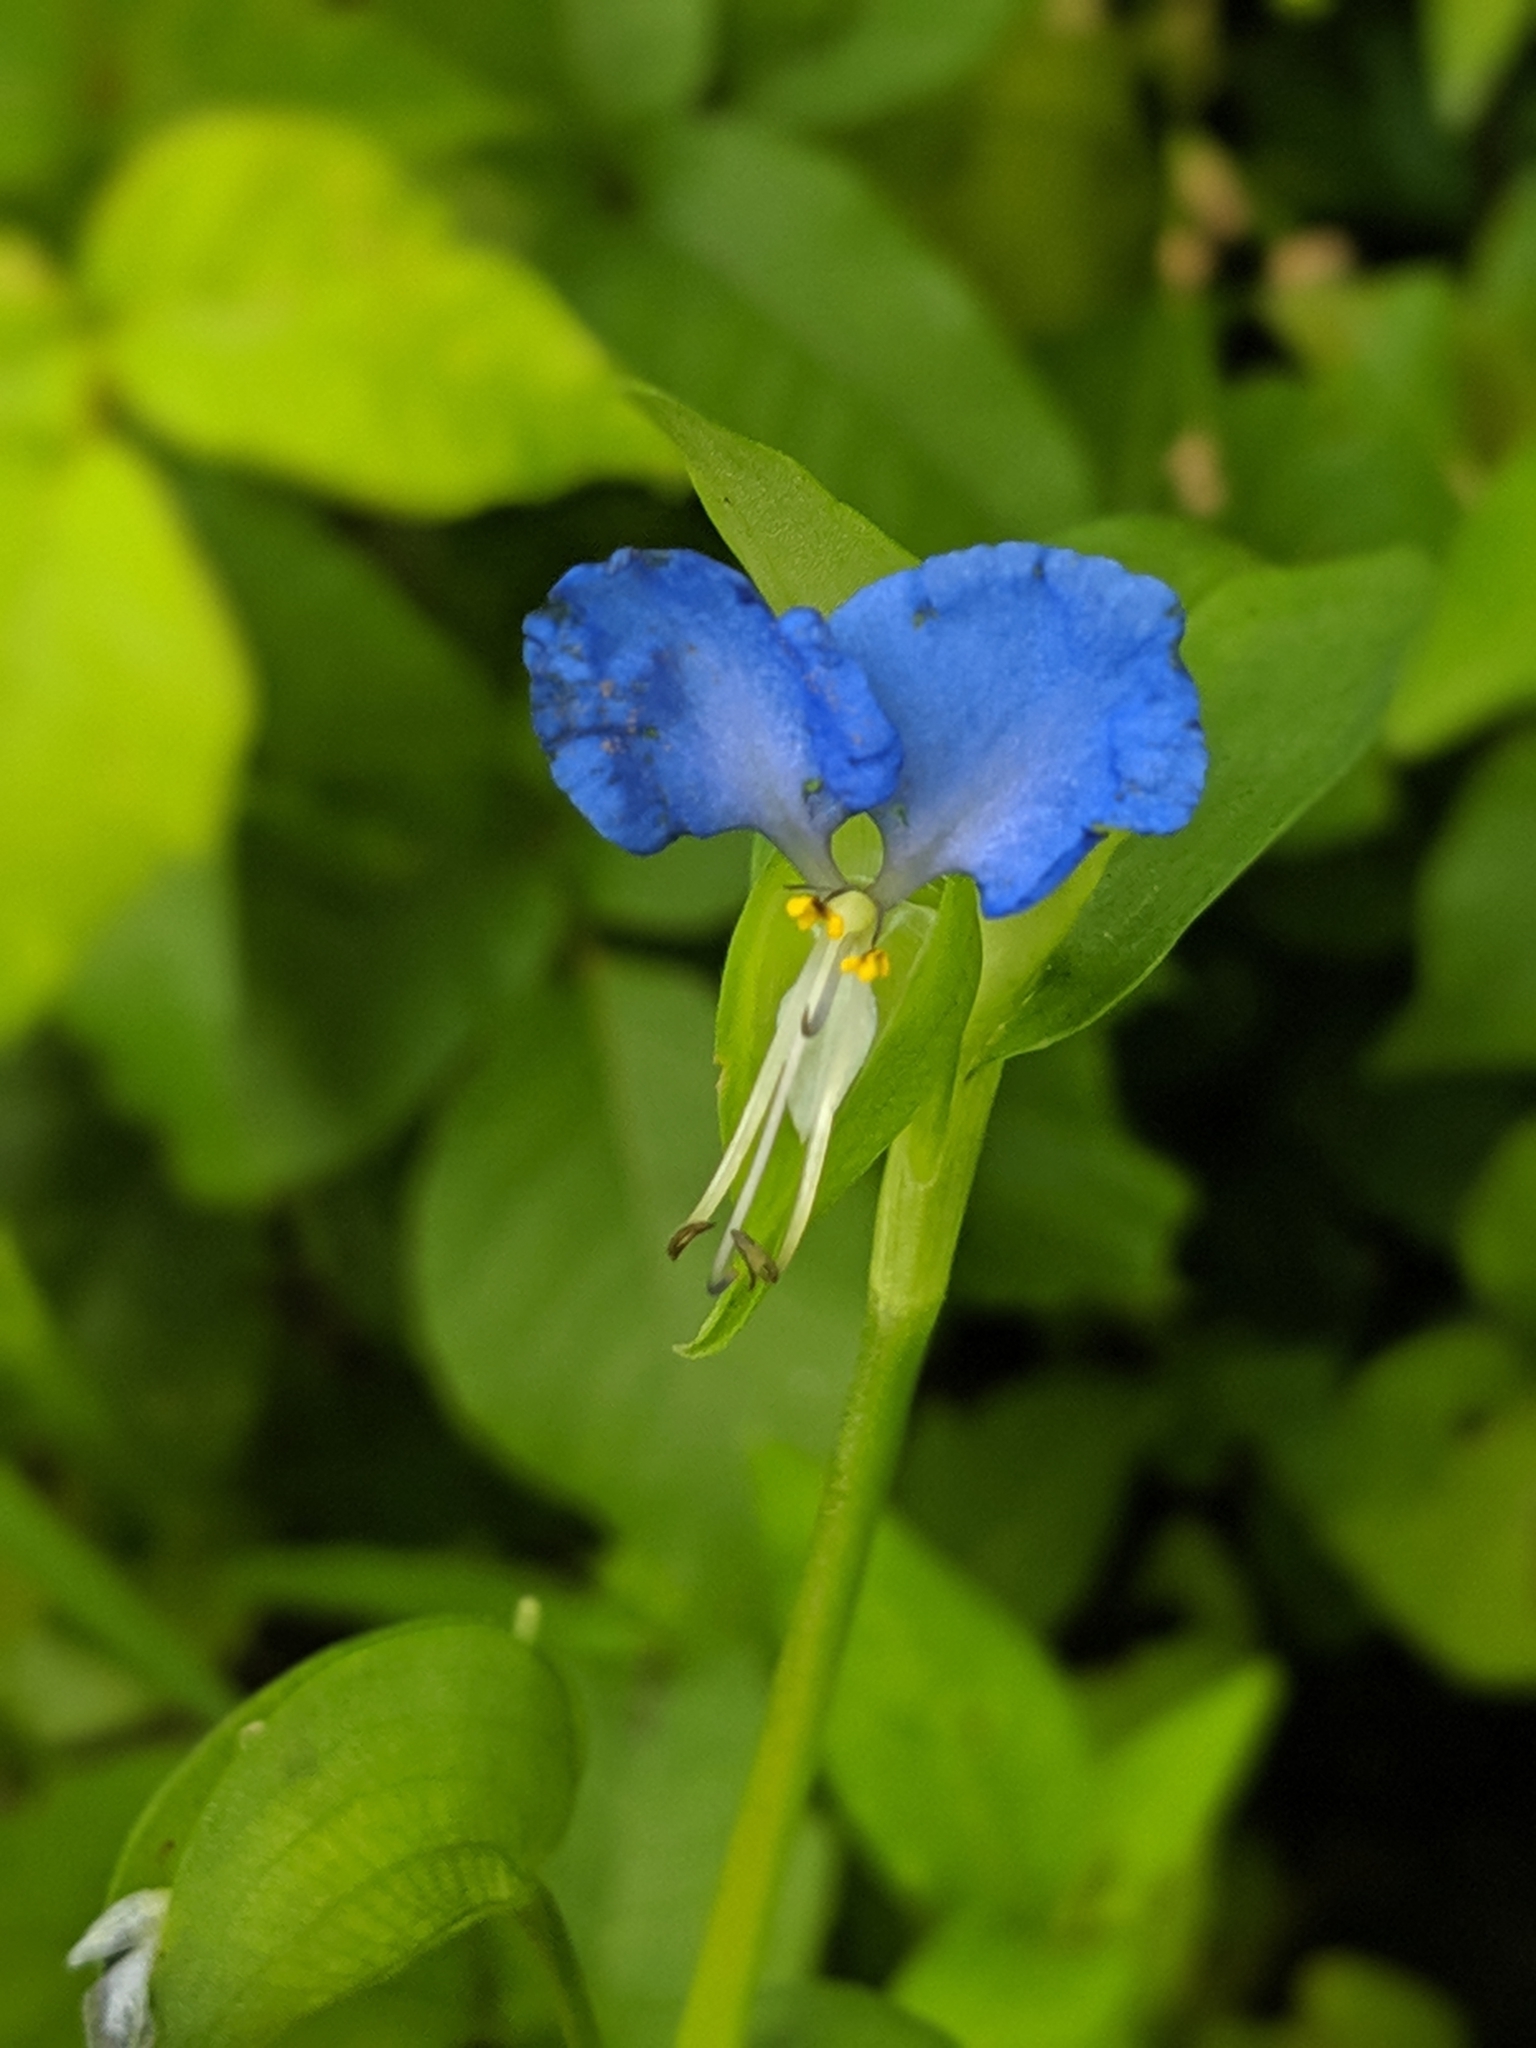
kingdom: Plantae
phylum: Tracheophyta
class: Liliopsida
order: Commelinales
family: Commelinaceae
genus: Commelina
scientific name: Commelina communis
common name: Asiatic dayflower
